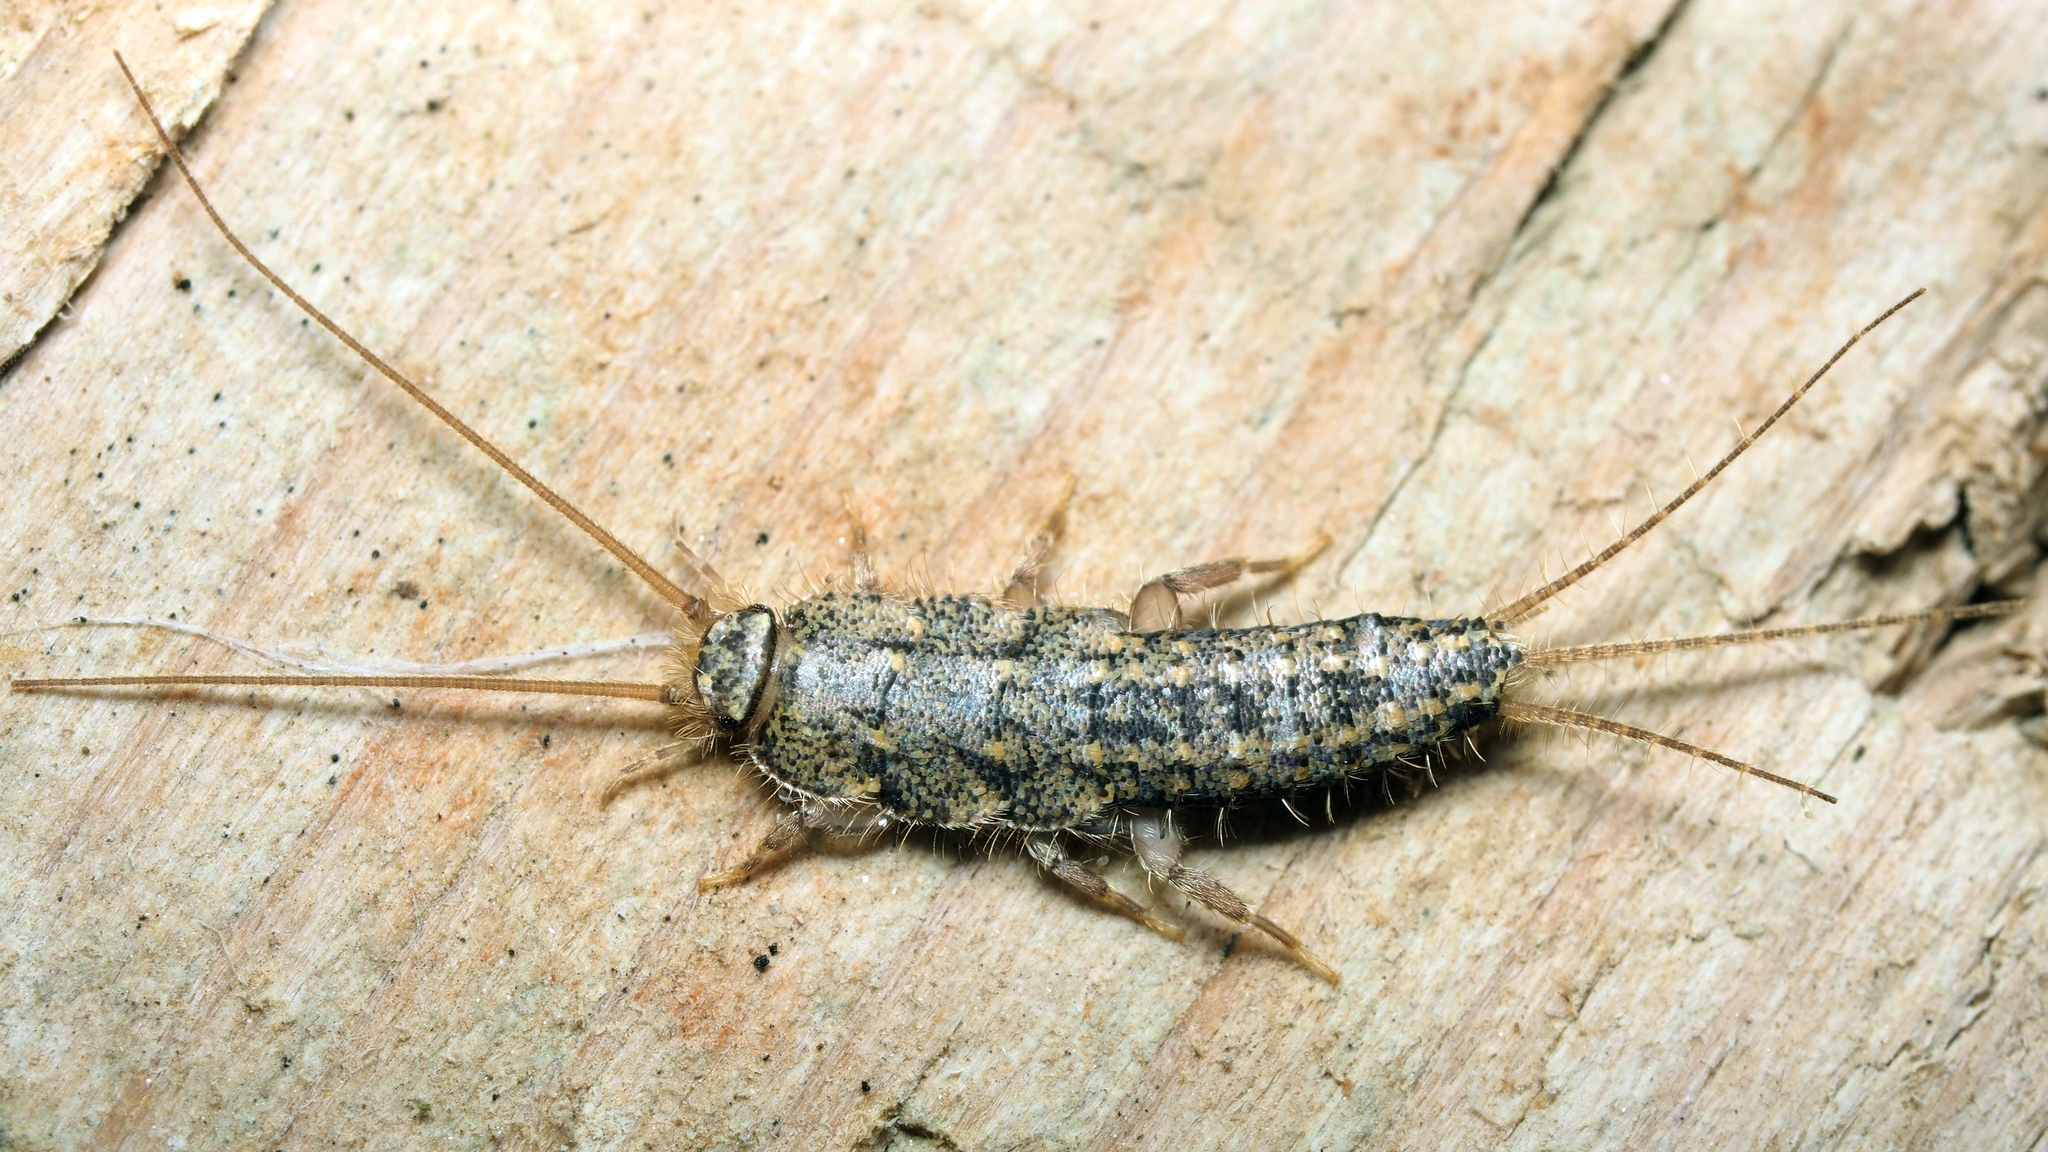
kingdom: Animalia
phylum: Arthropoda
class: Insecta
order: Zygentoma
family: Lepismatidae
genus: Ctenolepisma
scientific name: Ctenolepisma lineata
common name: Four-lined silverfish
